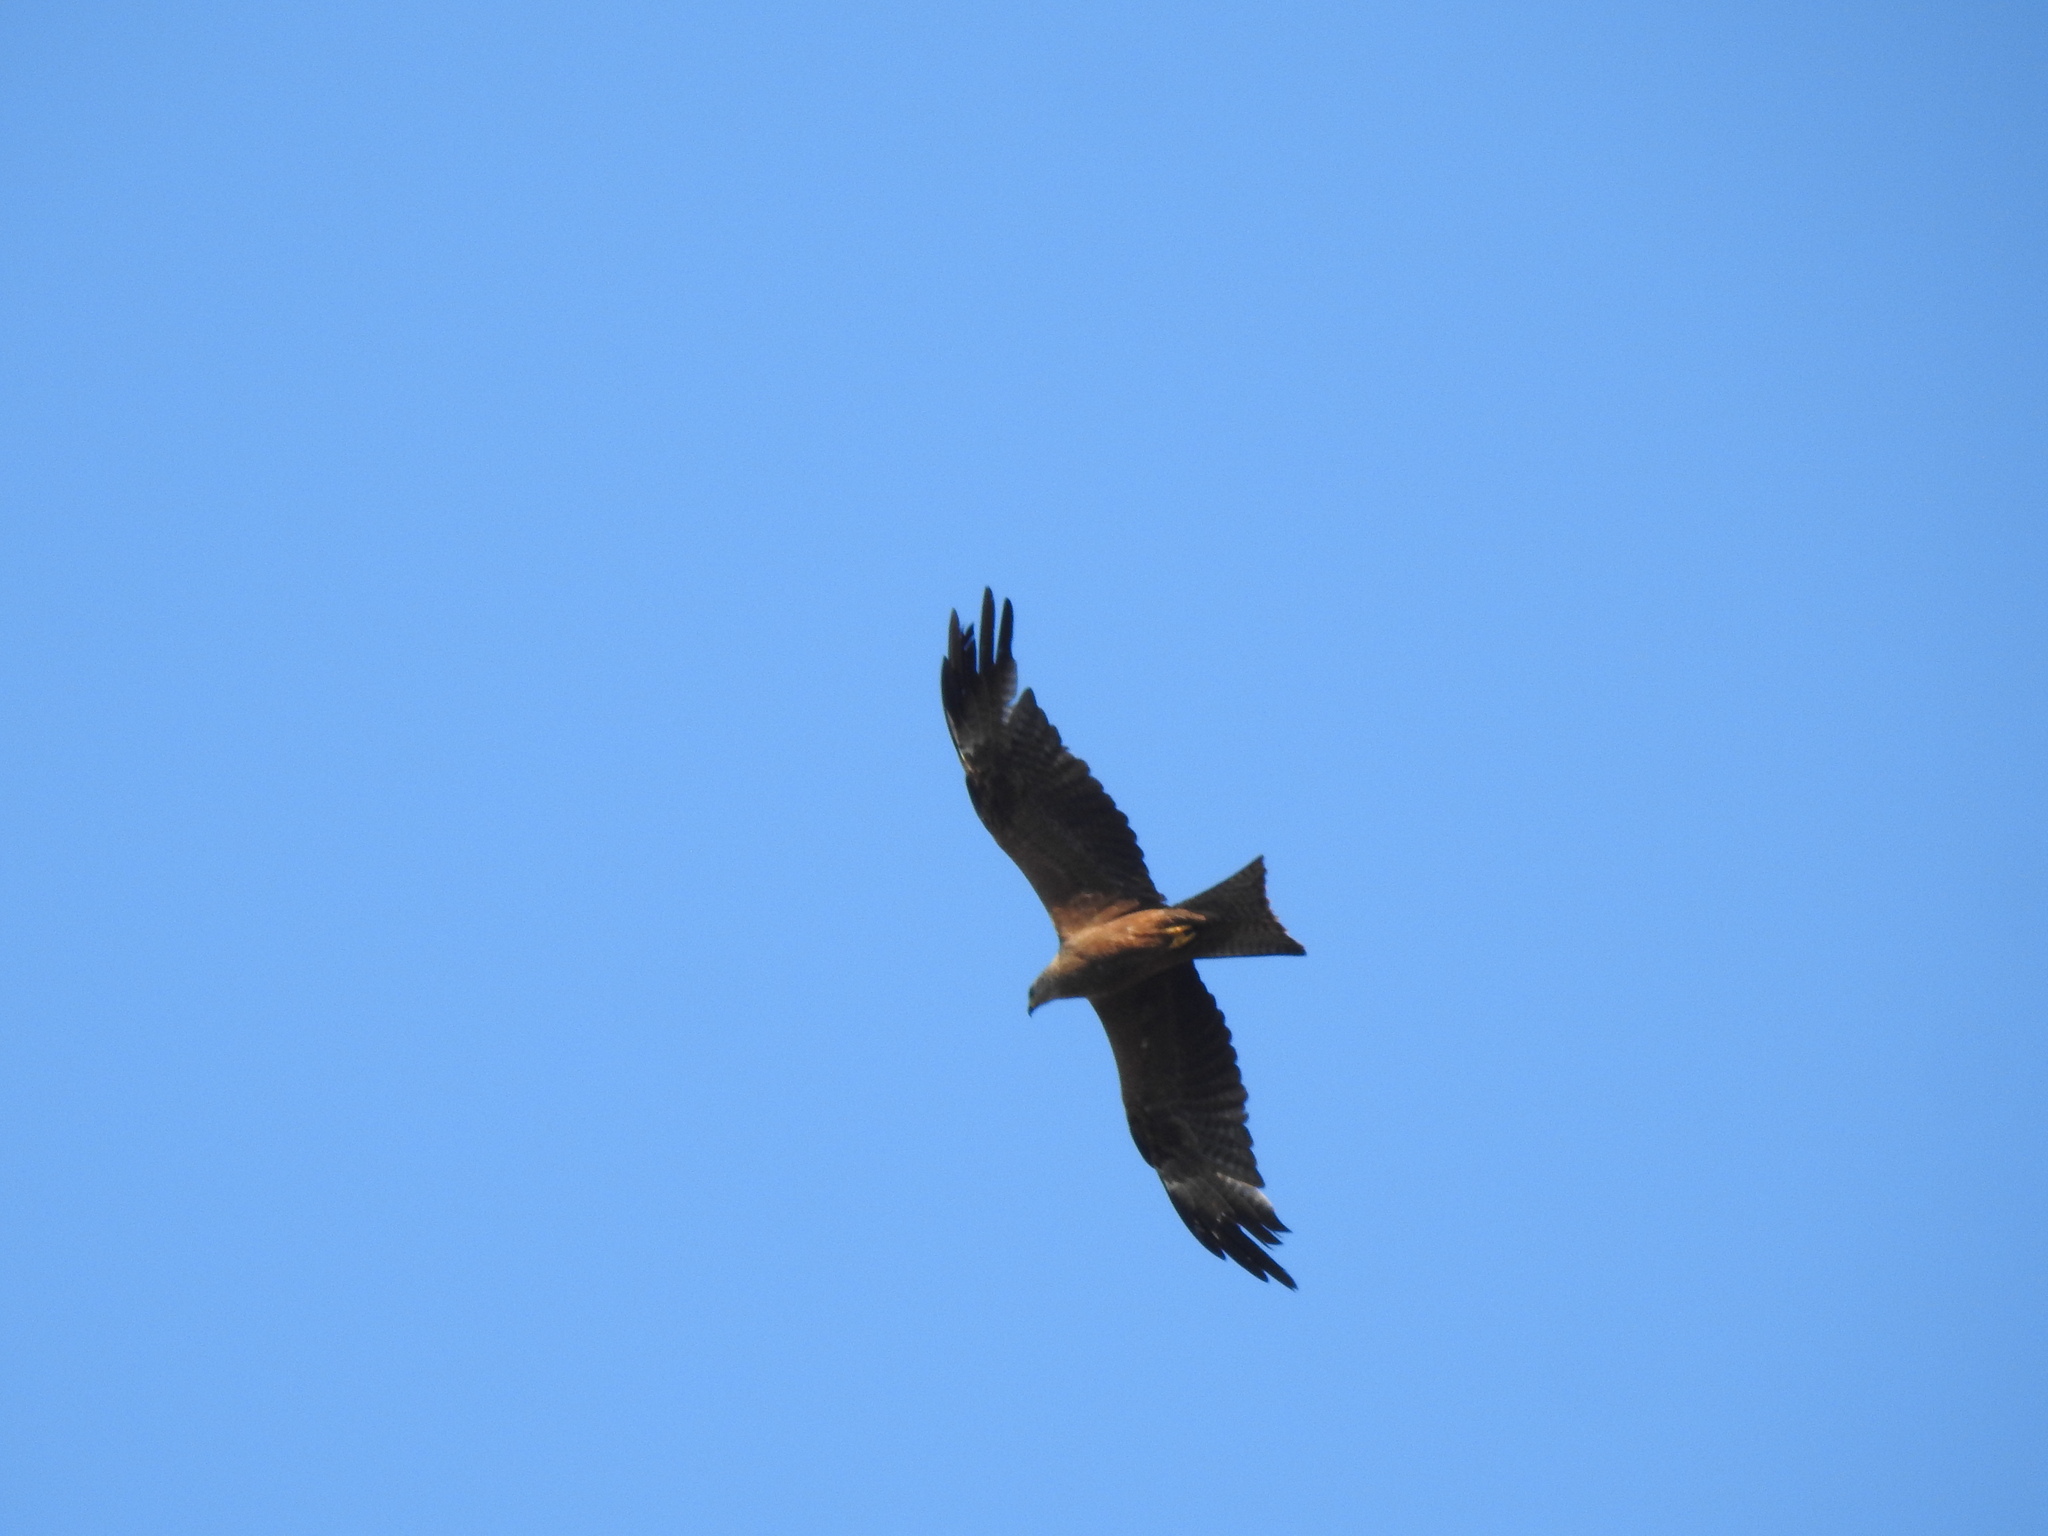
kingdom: Animalia
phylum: Chordata
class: Aves
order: Accipitriformes
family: Accipitridae
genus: Milvus
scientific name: Milvus migrans
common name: Black kite
